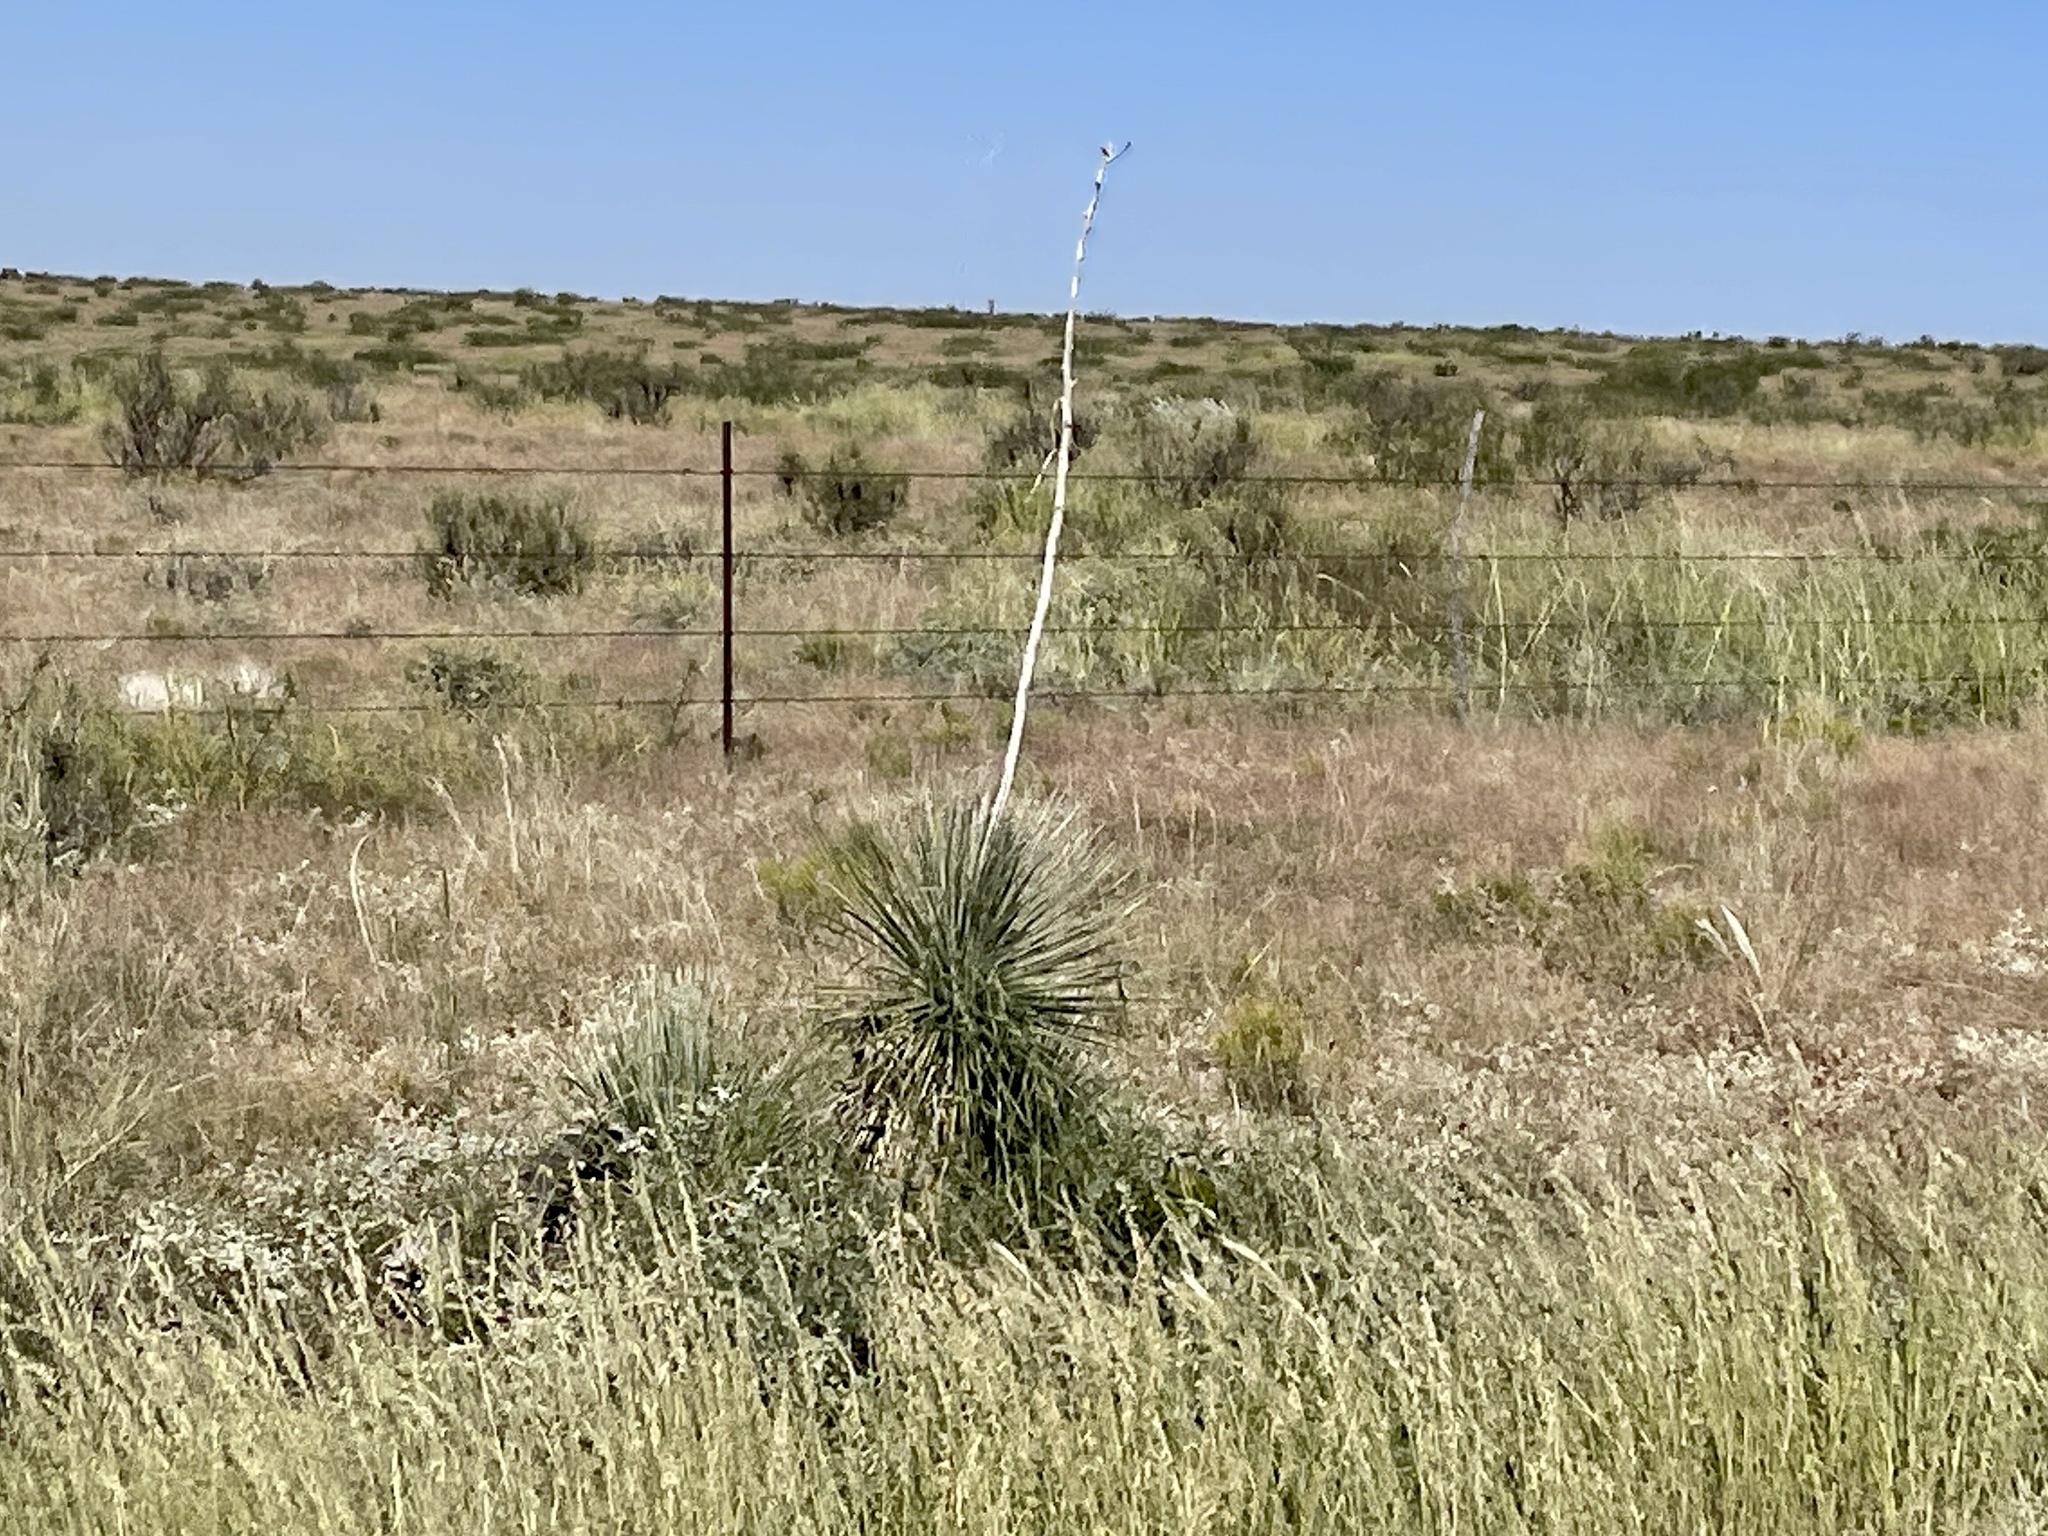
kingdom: Plantae
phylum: Tracheophyta
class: Liliopsida
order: Asparagales
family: Asparagaceae
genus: Yucca
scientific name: Yucca elata
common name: Palmella
